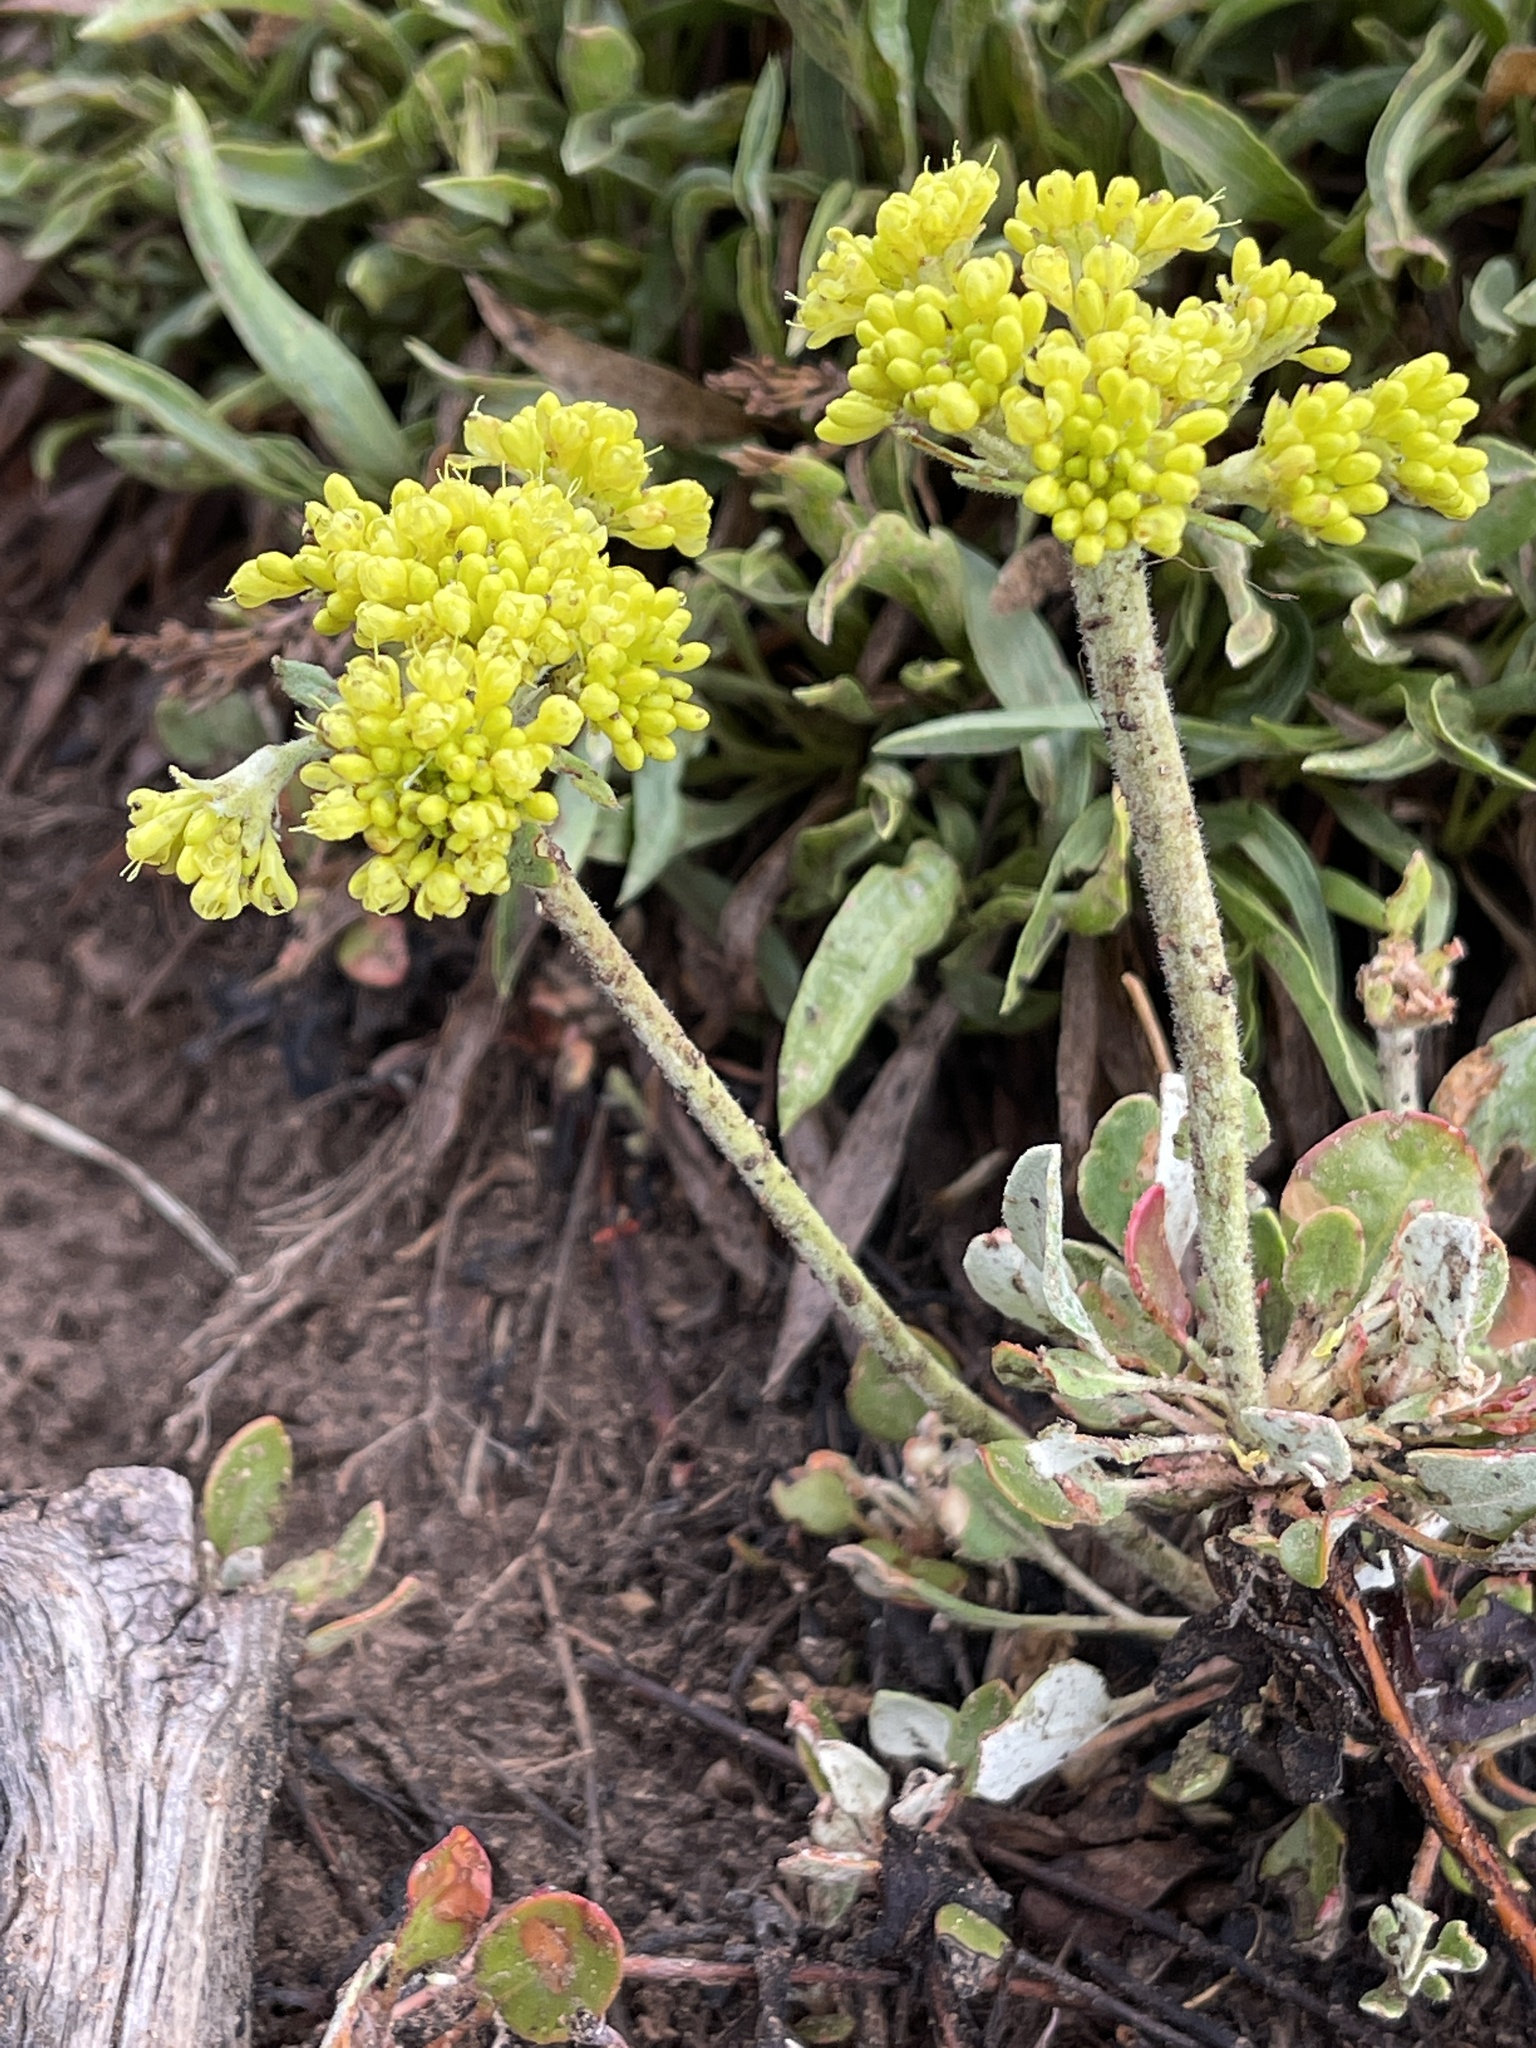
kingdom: Plantae
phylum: Tracheophyta
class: Magnoliopsida
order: Caryophyllales
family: Polygonaceae
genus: Eriogonum
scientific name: Eriogonum umbellatum
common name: Sulfur-buckwheat
